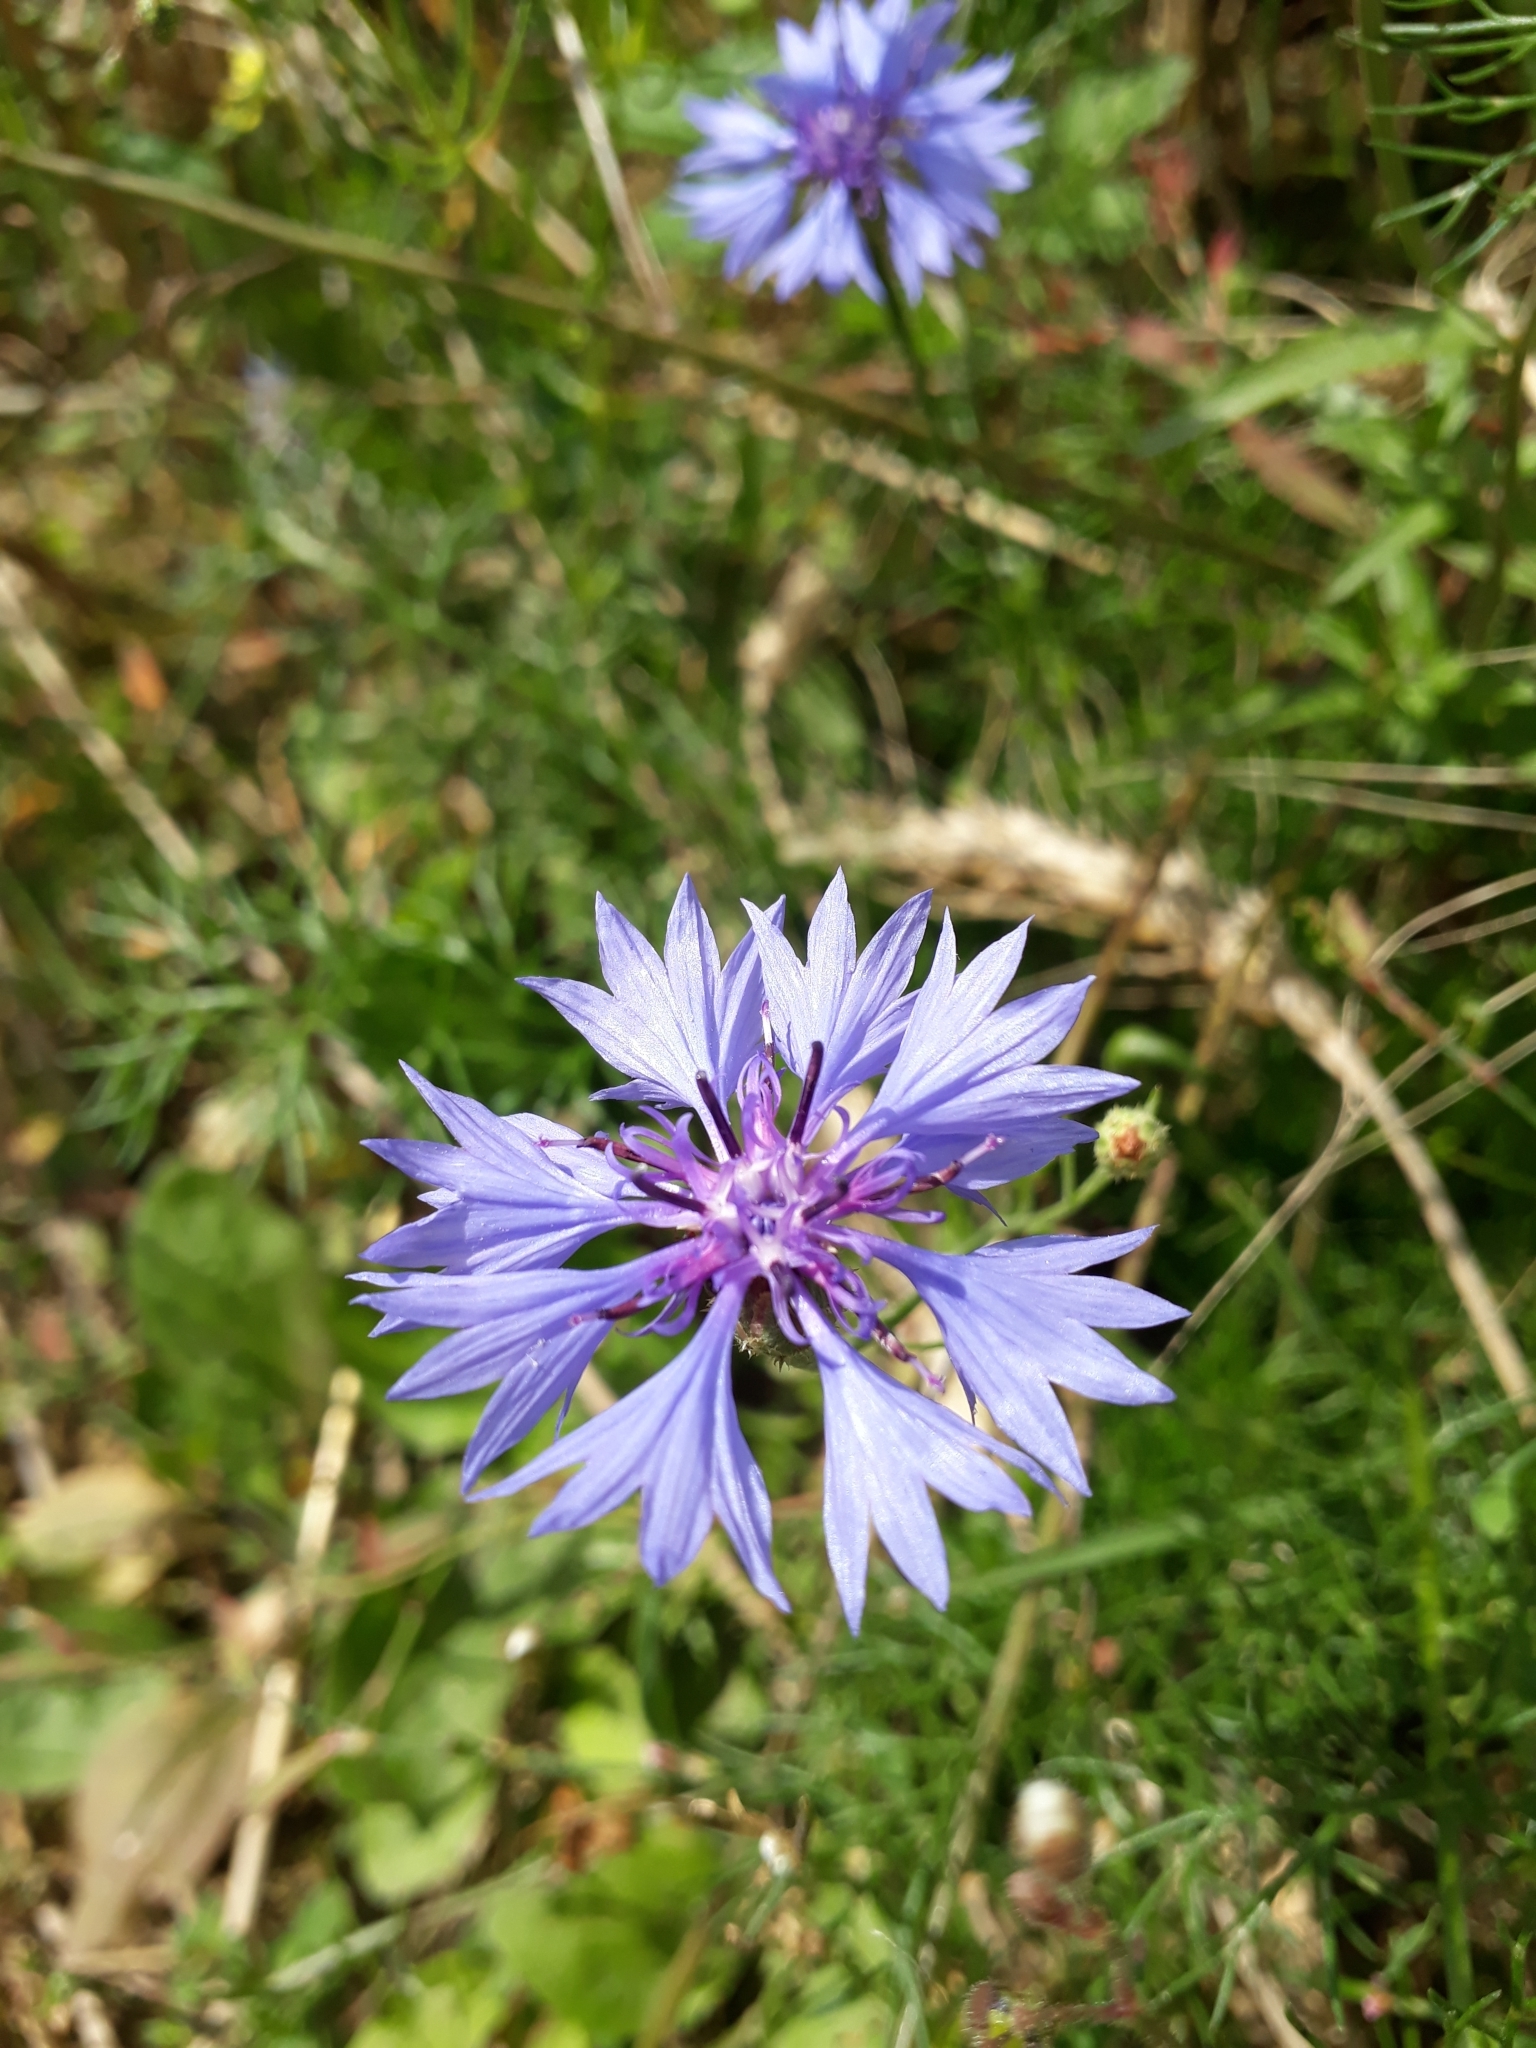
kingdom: Plantae
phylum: Tracheophyta
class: Magnoliopsida
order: Asterales
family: Asteraceae
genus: Centaurea
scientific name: Centaurea cyanus
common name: Cornflower
